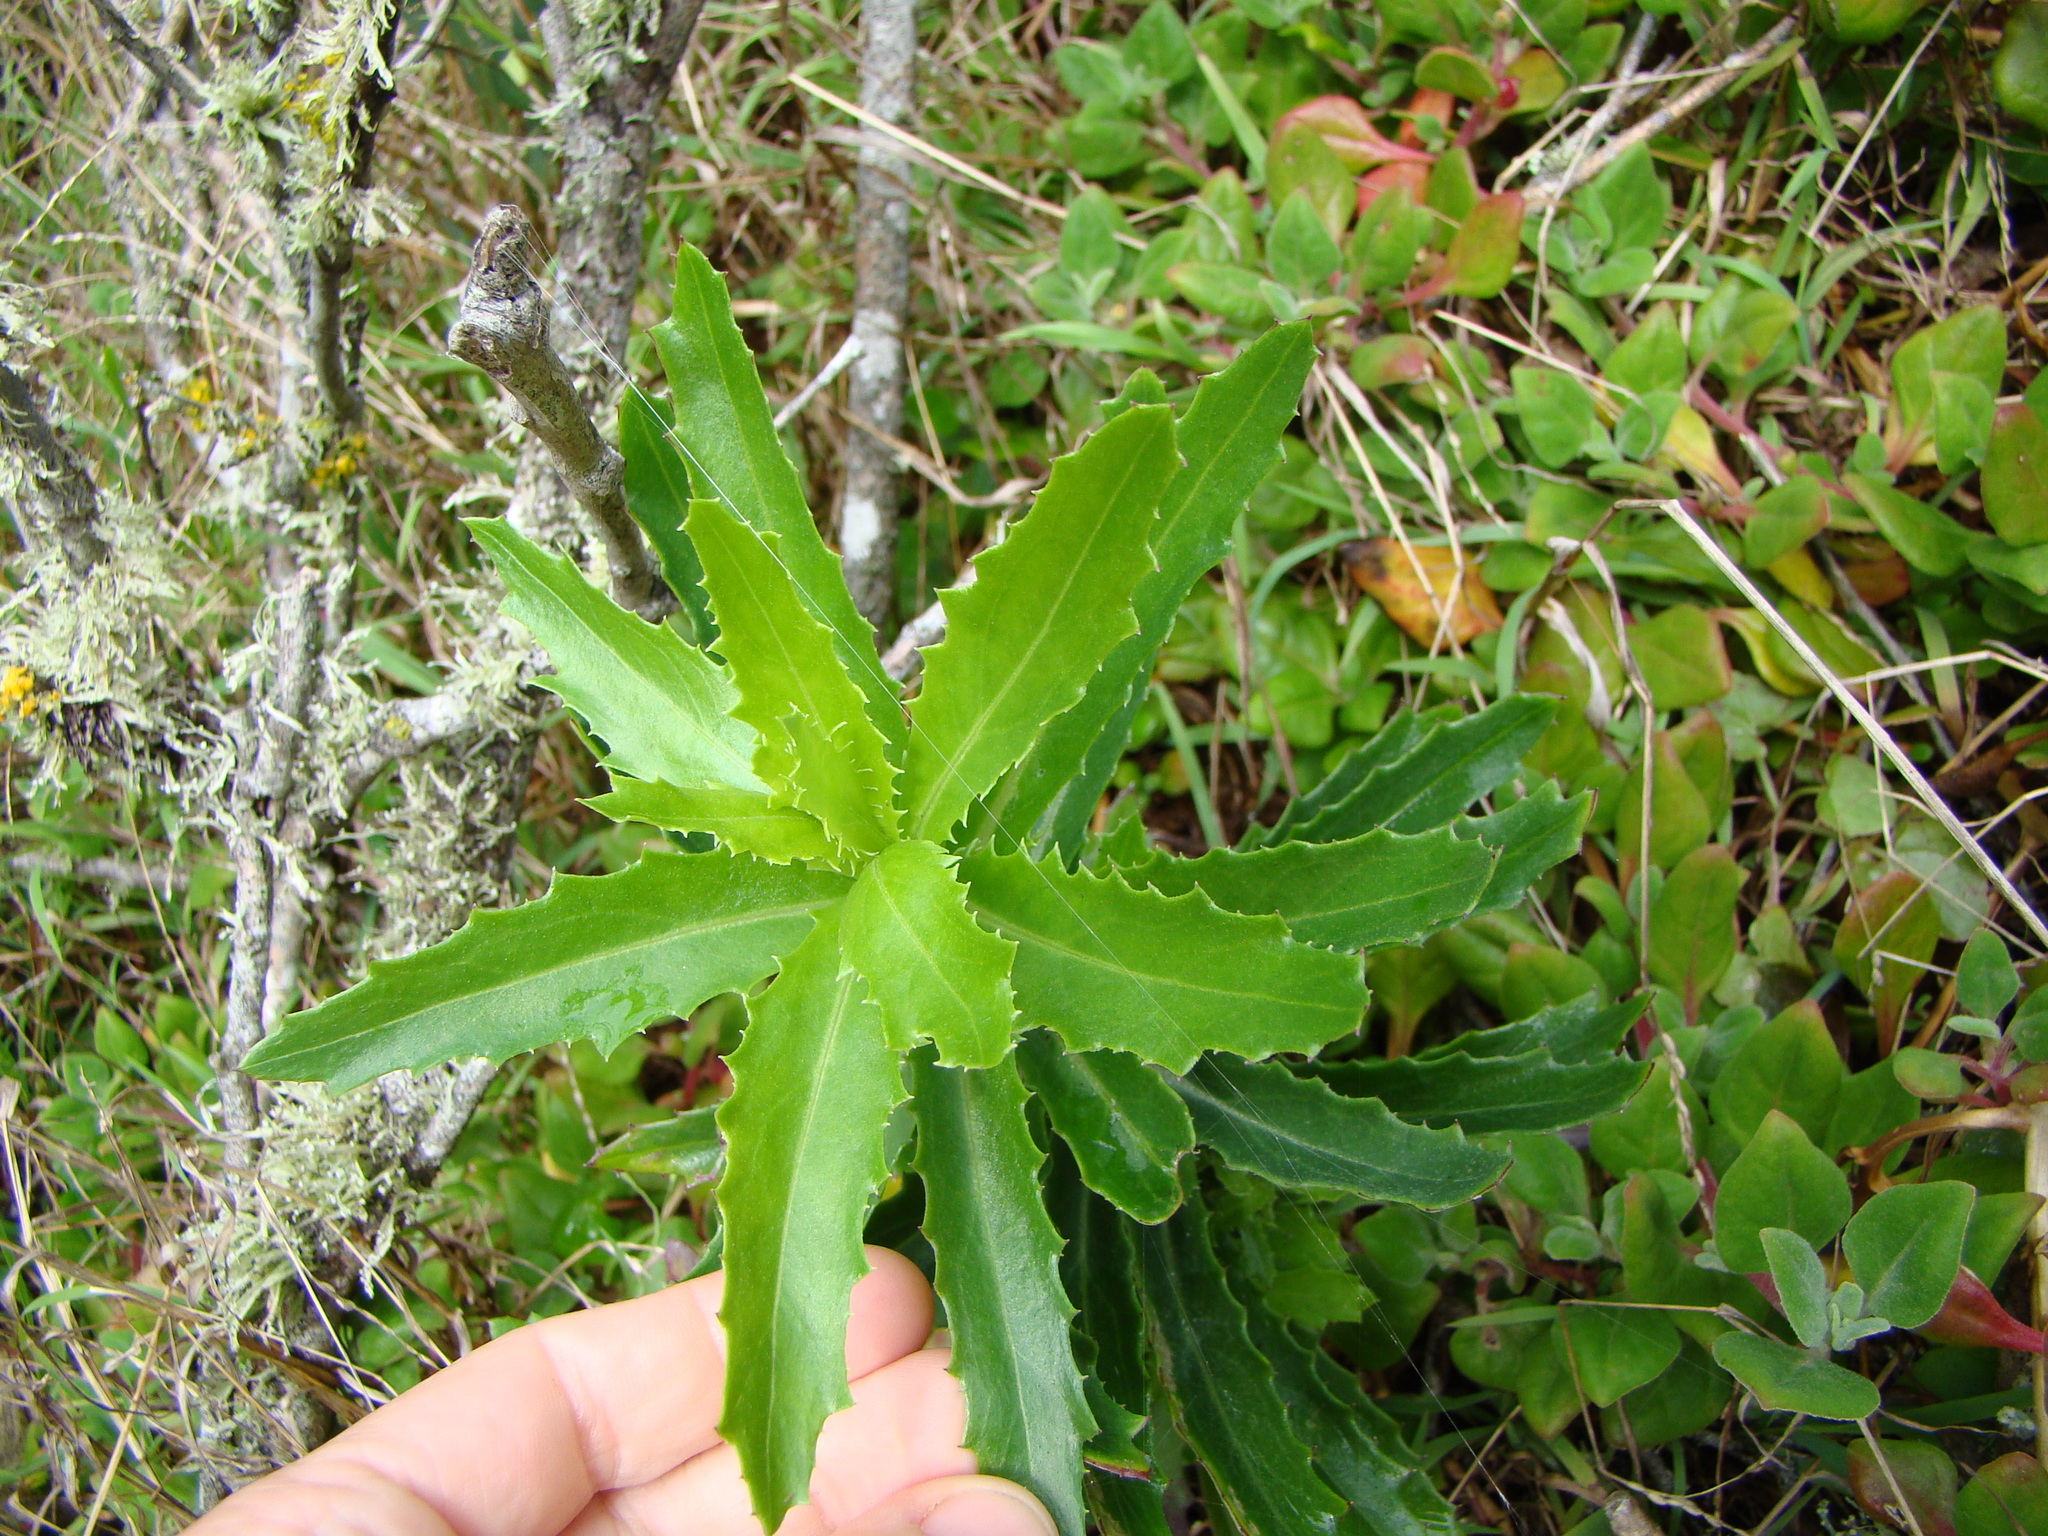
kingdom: Plantae
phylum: Tracheophyta
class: Magnoliopsida
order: Asterales
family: Asteraceae
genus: Senecio
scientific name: Senecio glastifolius
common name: Woad-leaved ragwort
